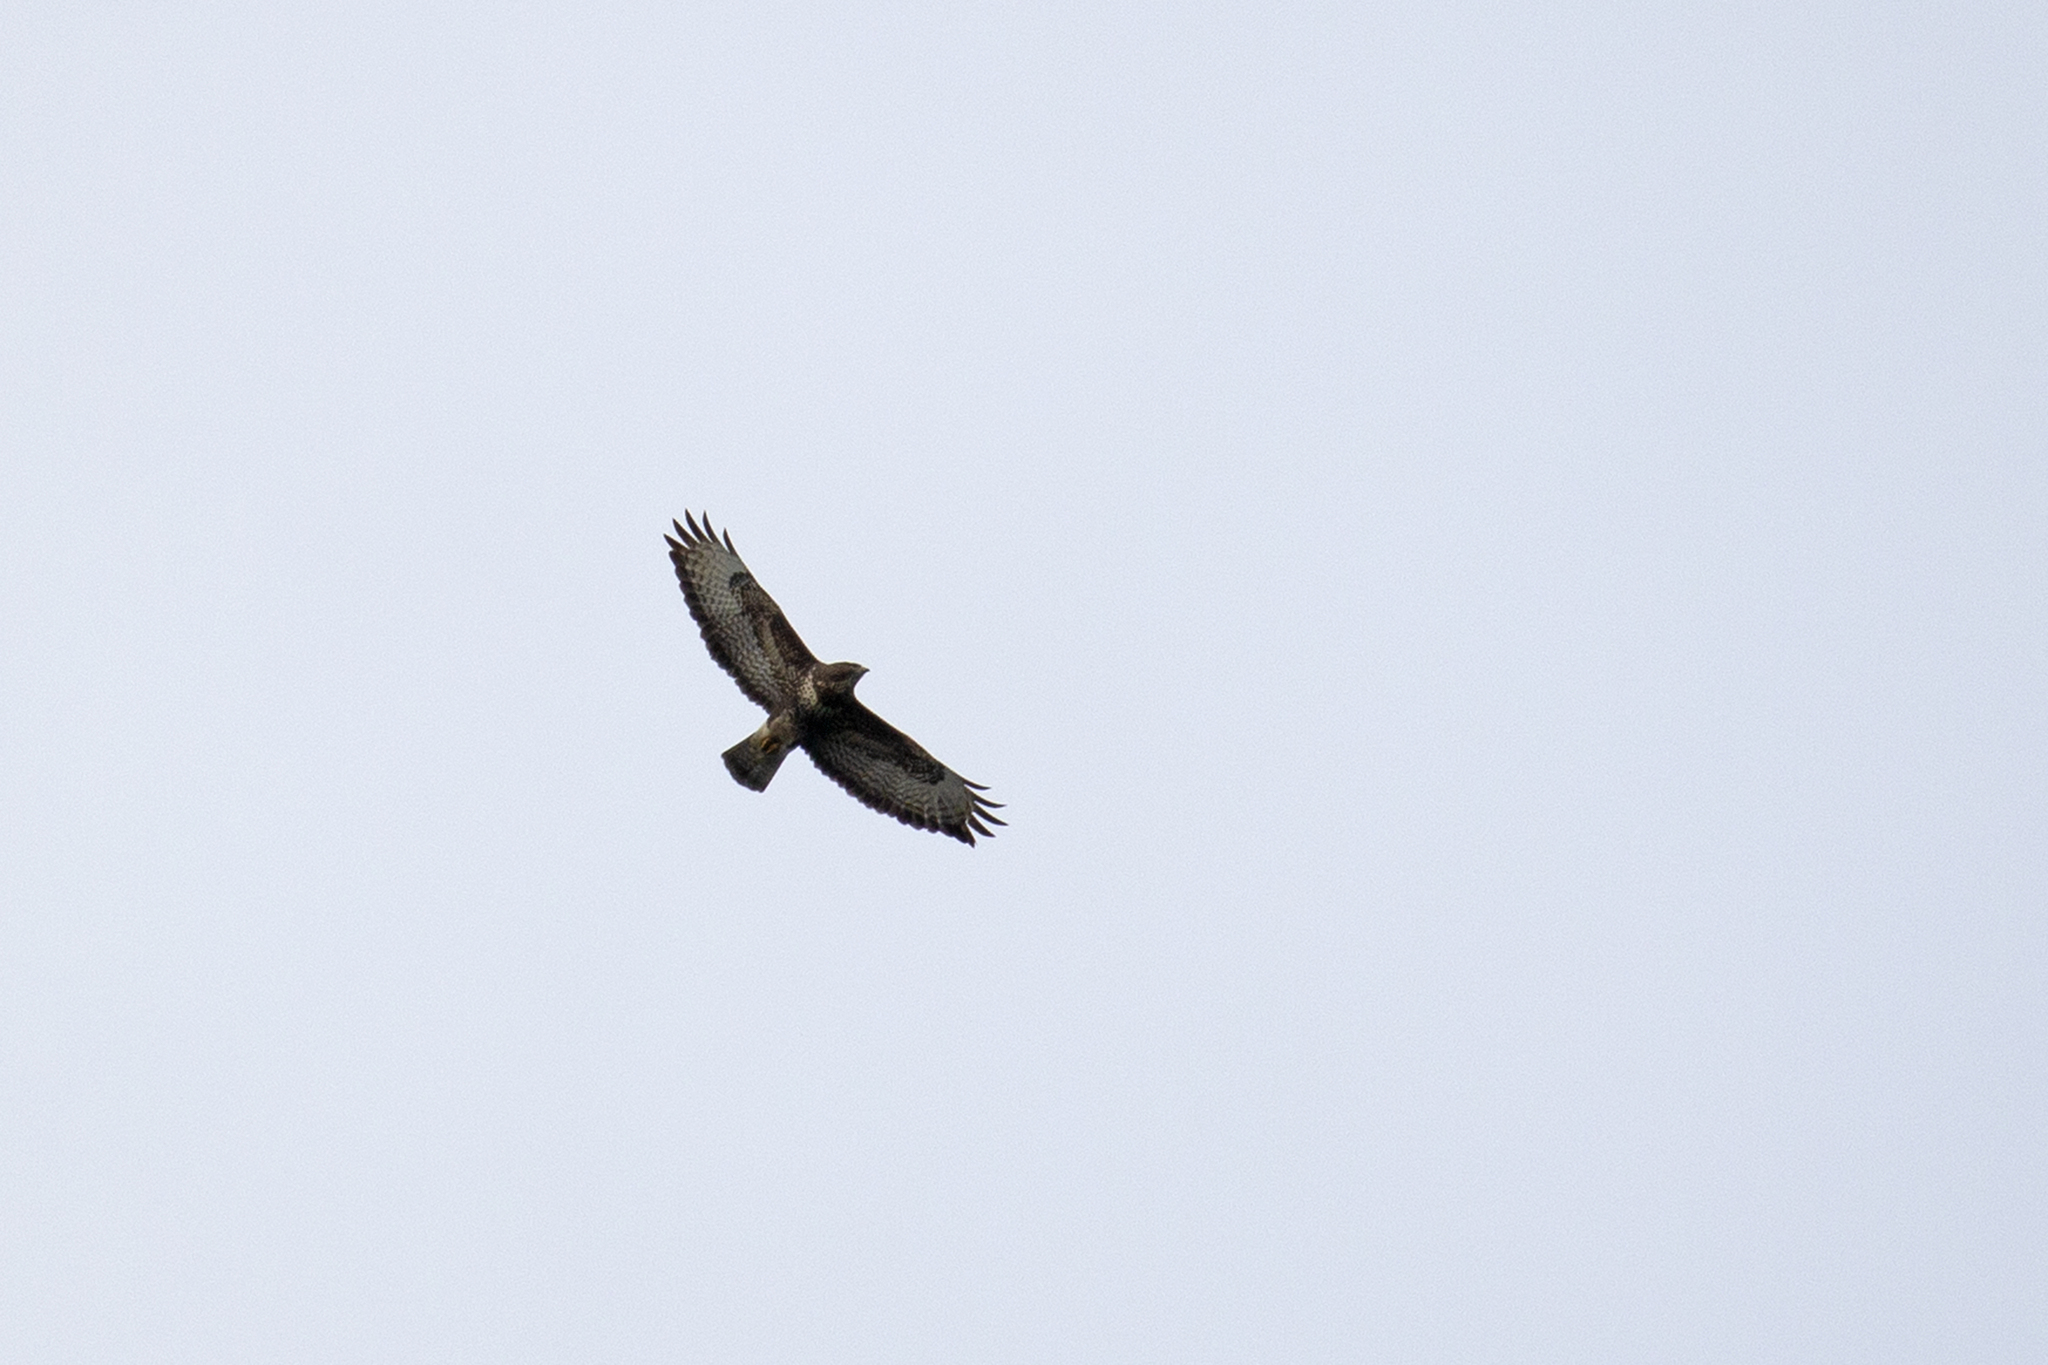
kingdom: Animalia
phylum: Chordata
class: Aves
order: Accipitriformes
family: Accipitridae
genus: Buteo
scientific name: Buteo buteo
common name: Common buzzard
